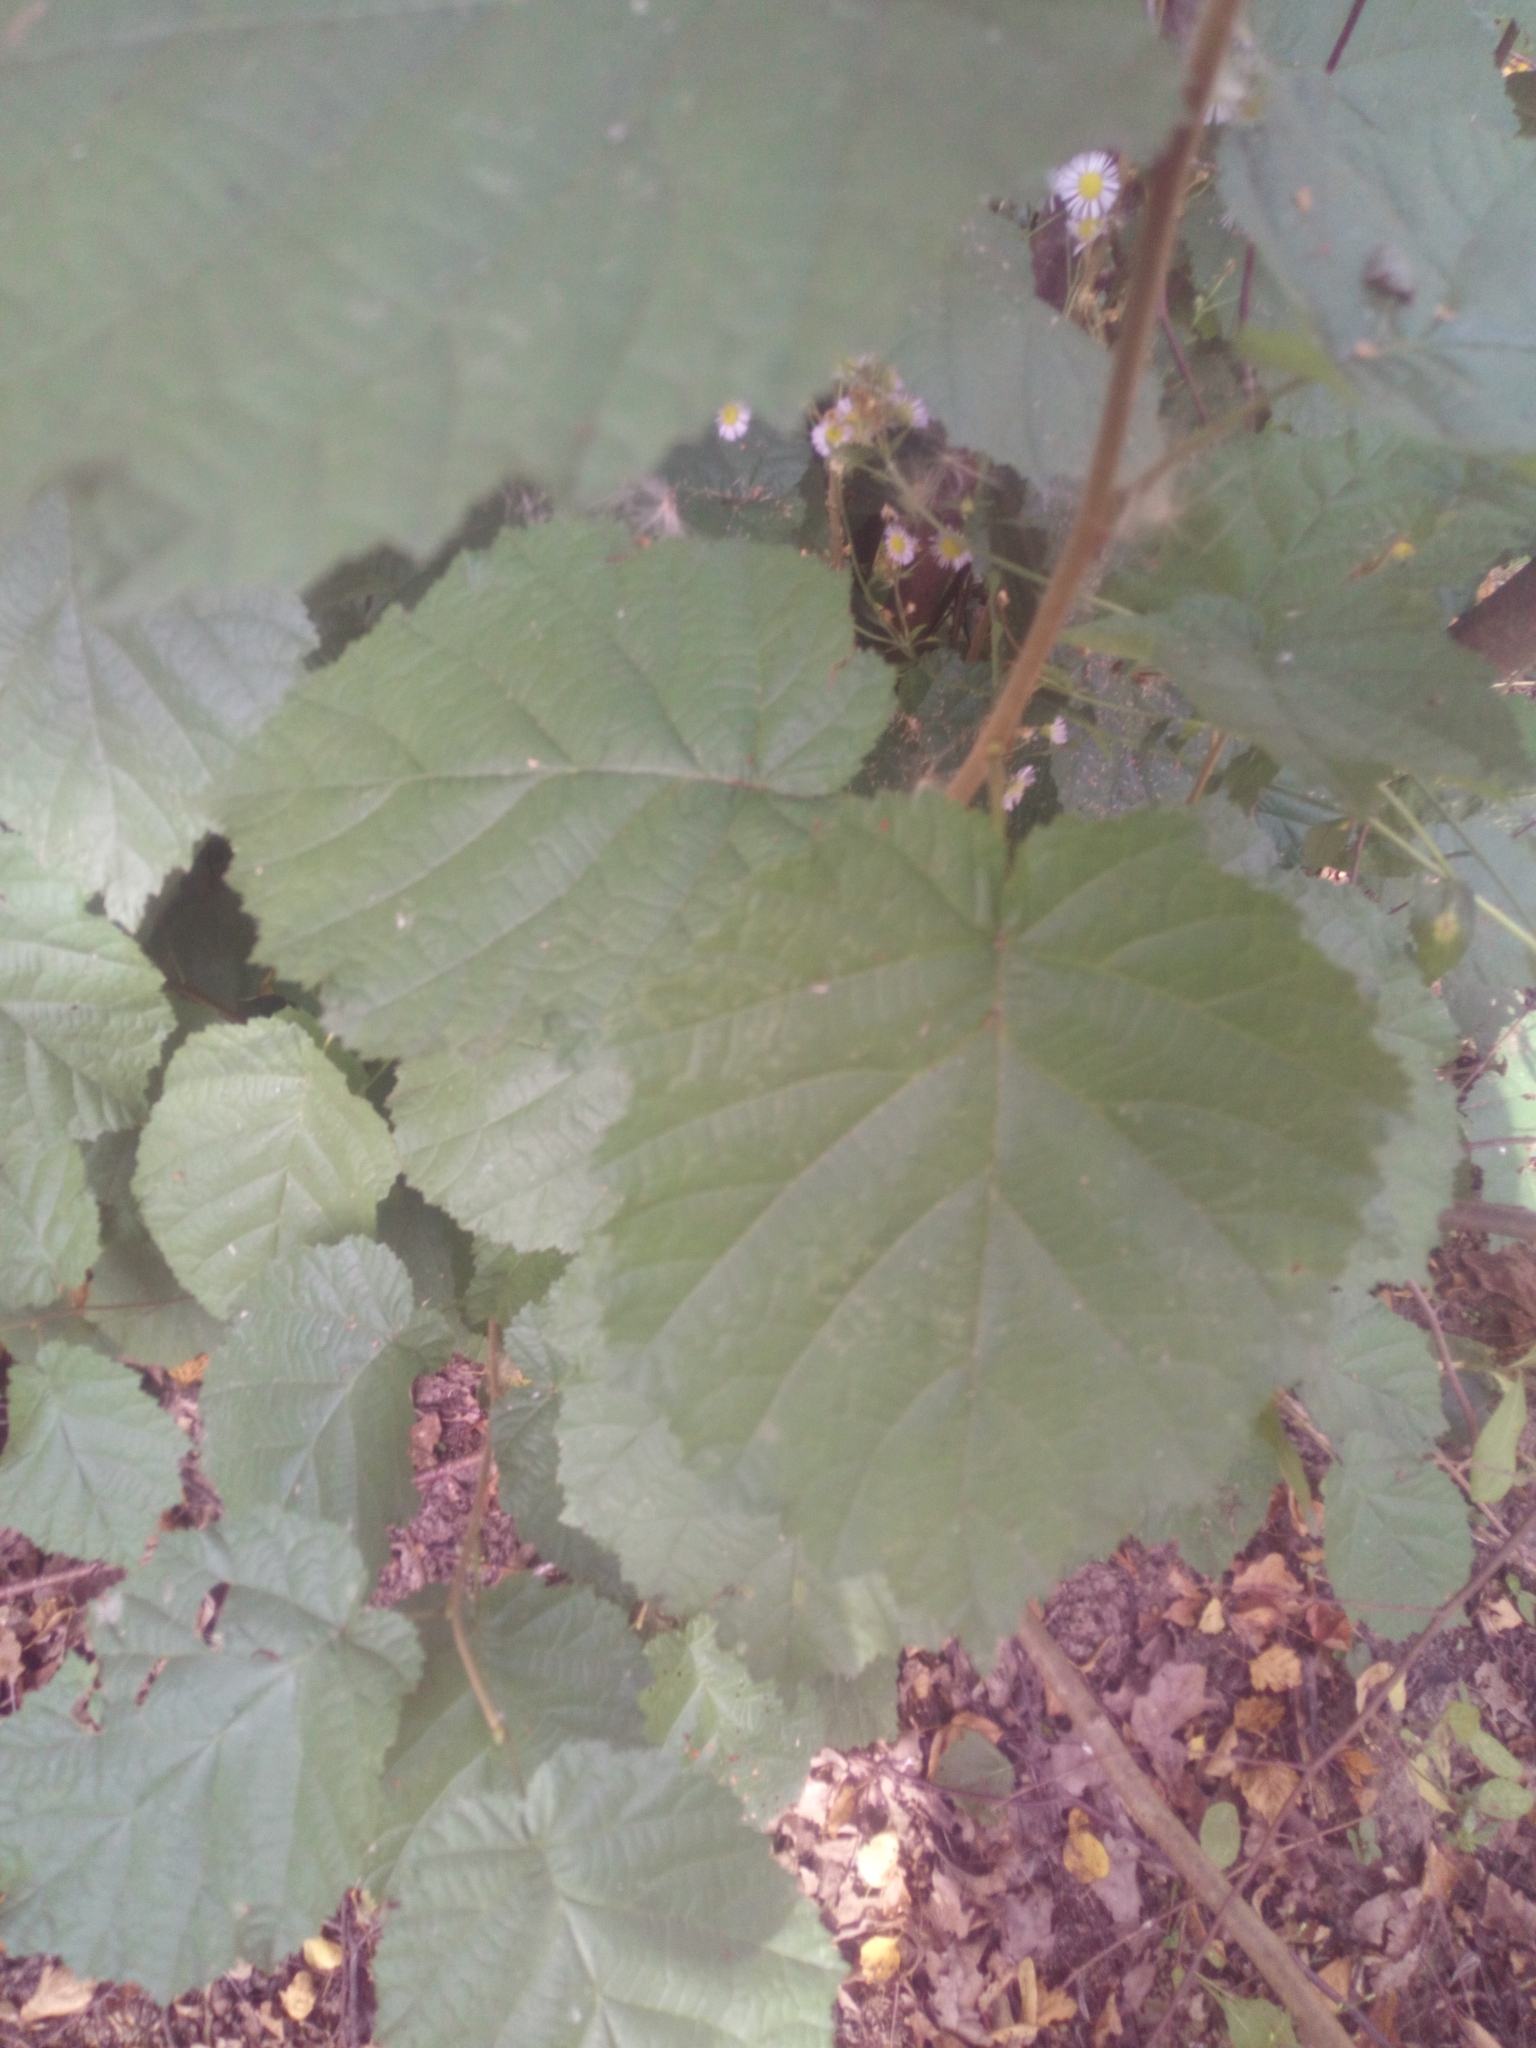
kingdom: Plantae
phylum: Tracheophyta
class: Magnoliopsida
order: Fagales
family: Betulaceae
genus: Corylus
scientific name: Corylus avellana
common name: European hazel
